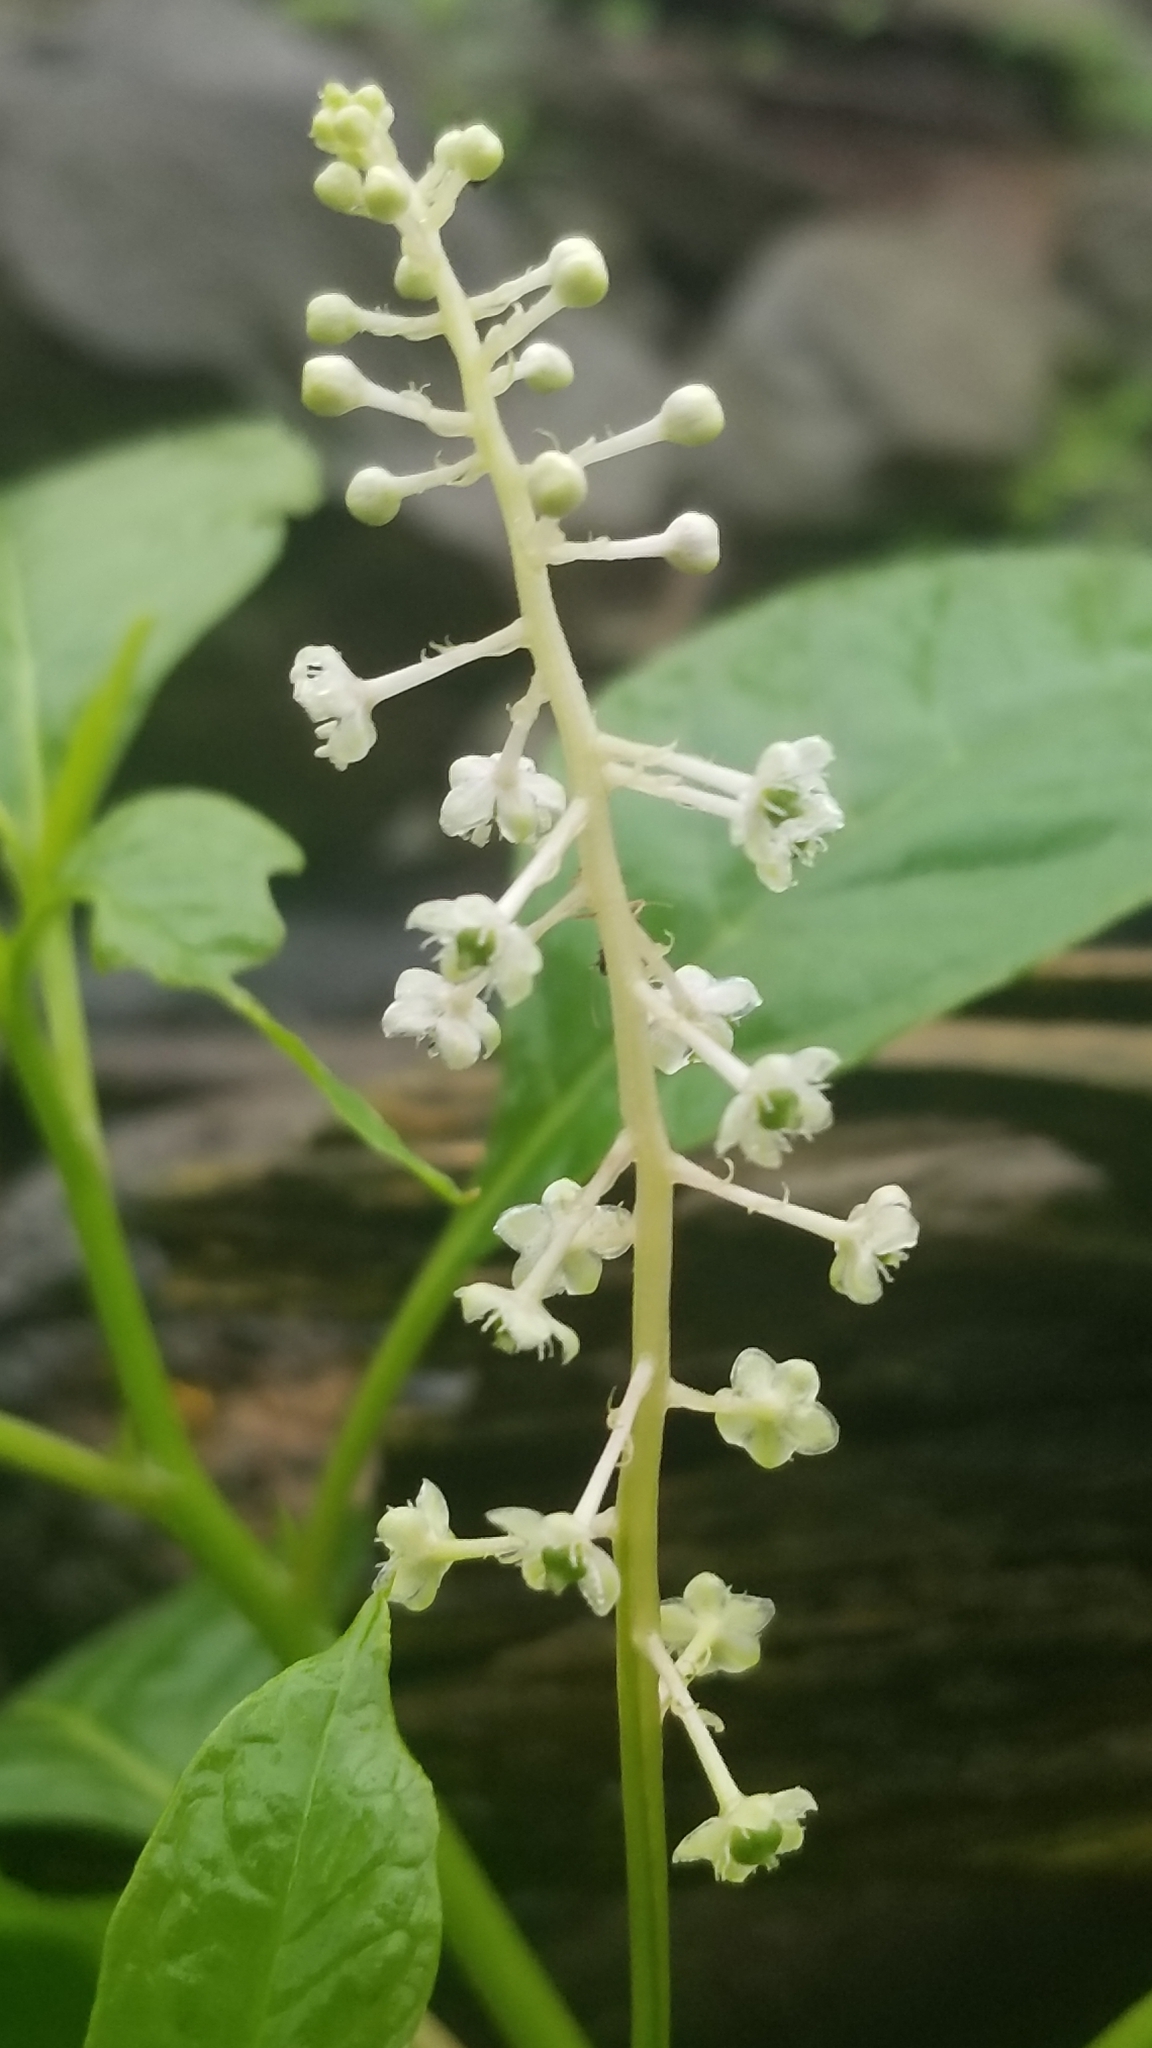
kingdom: Plantae
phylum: Tracheophyta
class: Magnoliopsida
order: Caryophyllales
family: Phytolaccaceae
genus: Phytolacca
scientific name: Phytolacca americana
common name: American pokeweed
